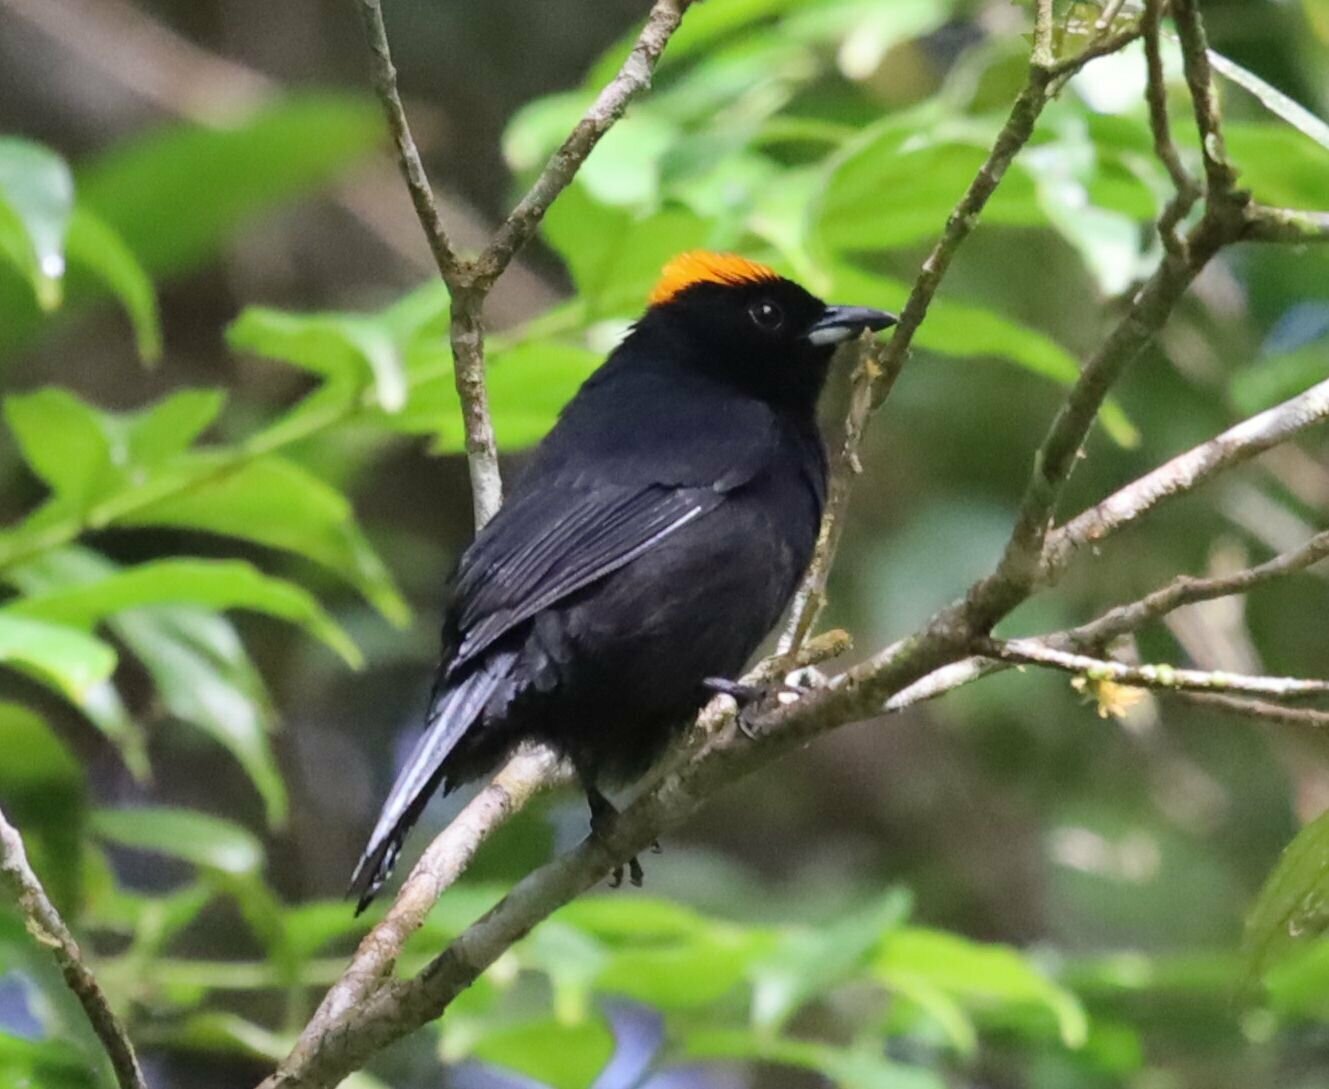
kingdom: Animalia
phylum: Chordata
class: Aves
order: Passeriformes
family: Thraupidae
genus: Tachyphonus
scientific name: Tachyphonus delatrii
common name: Tawny-crested tanager
